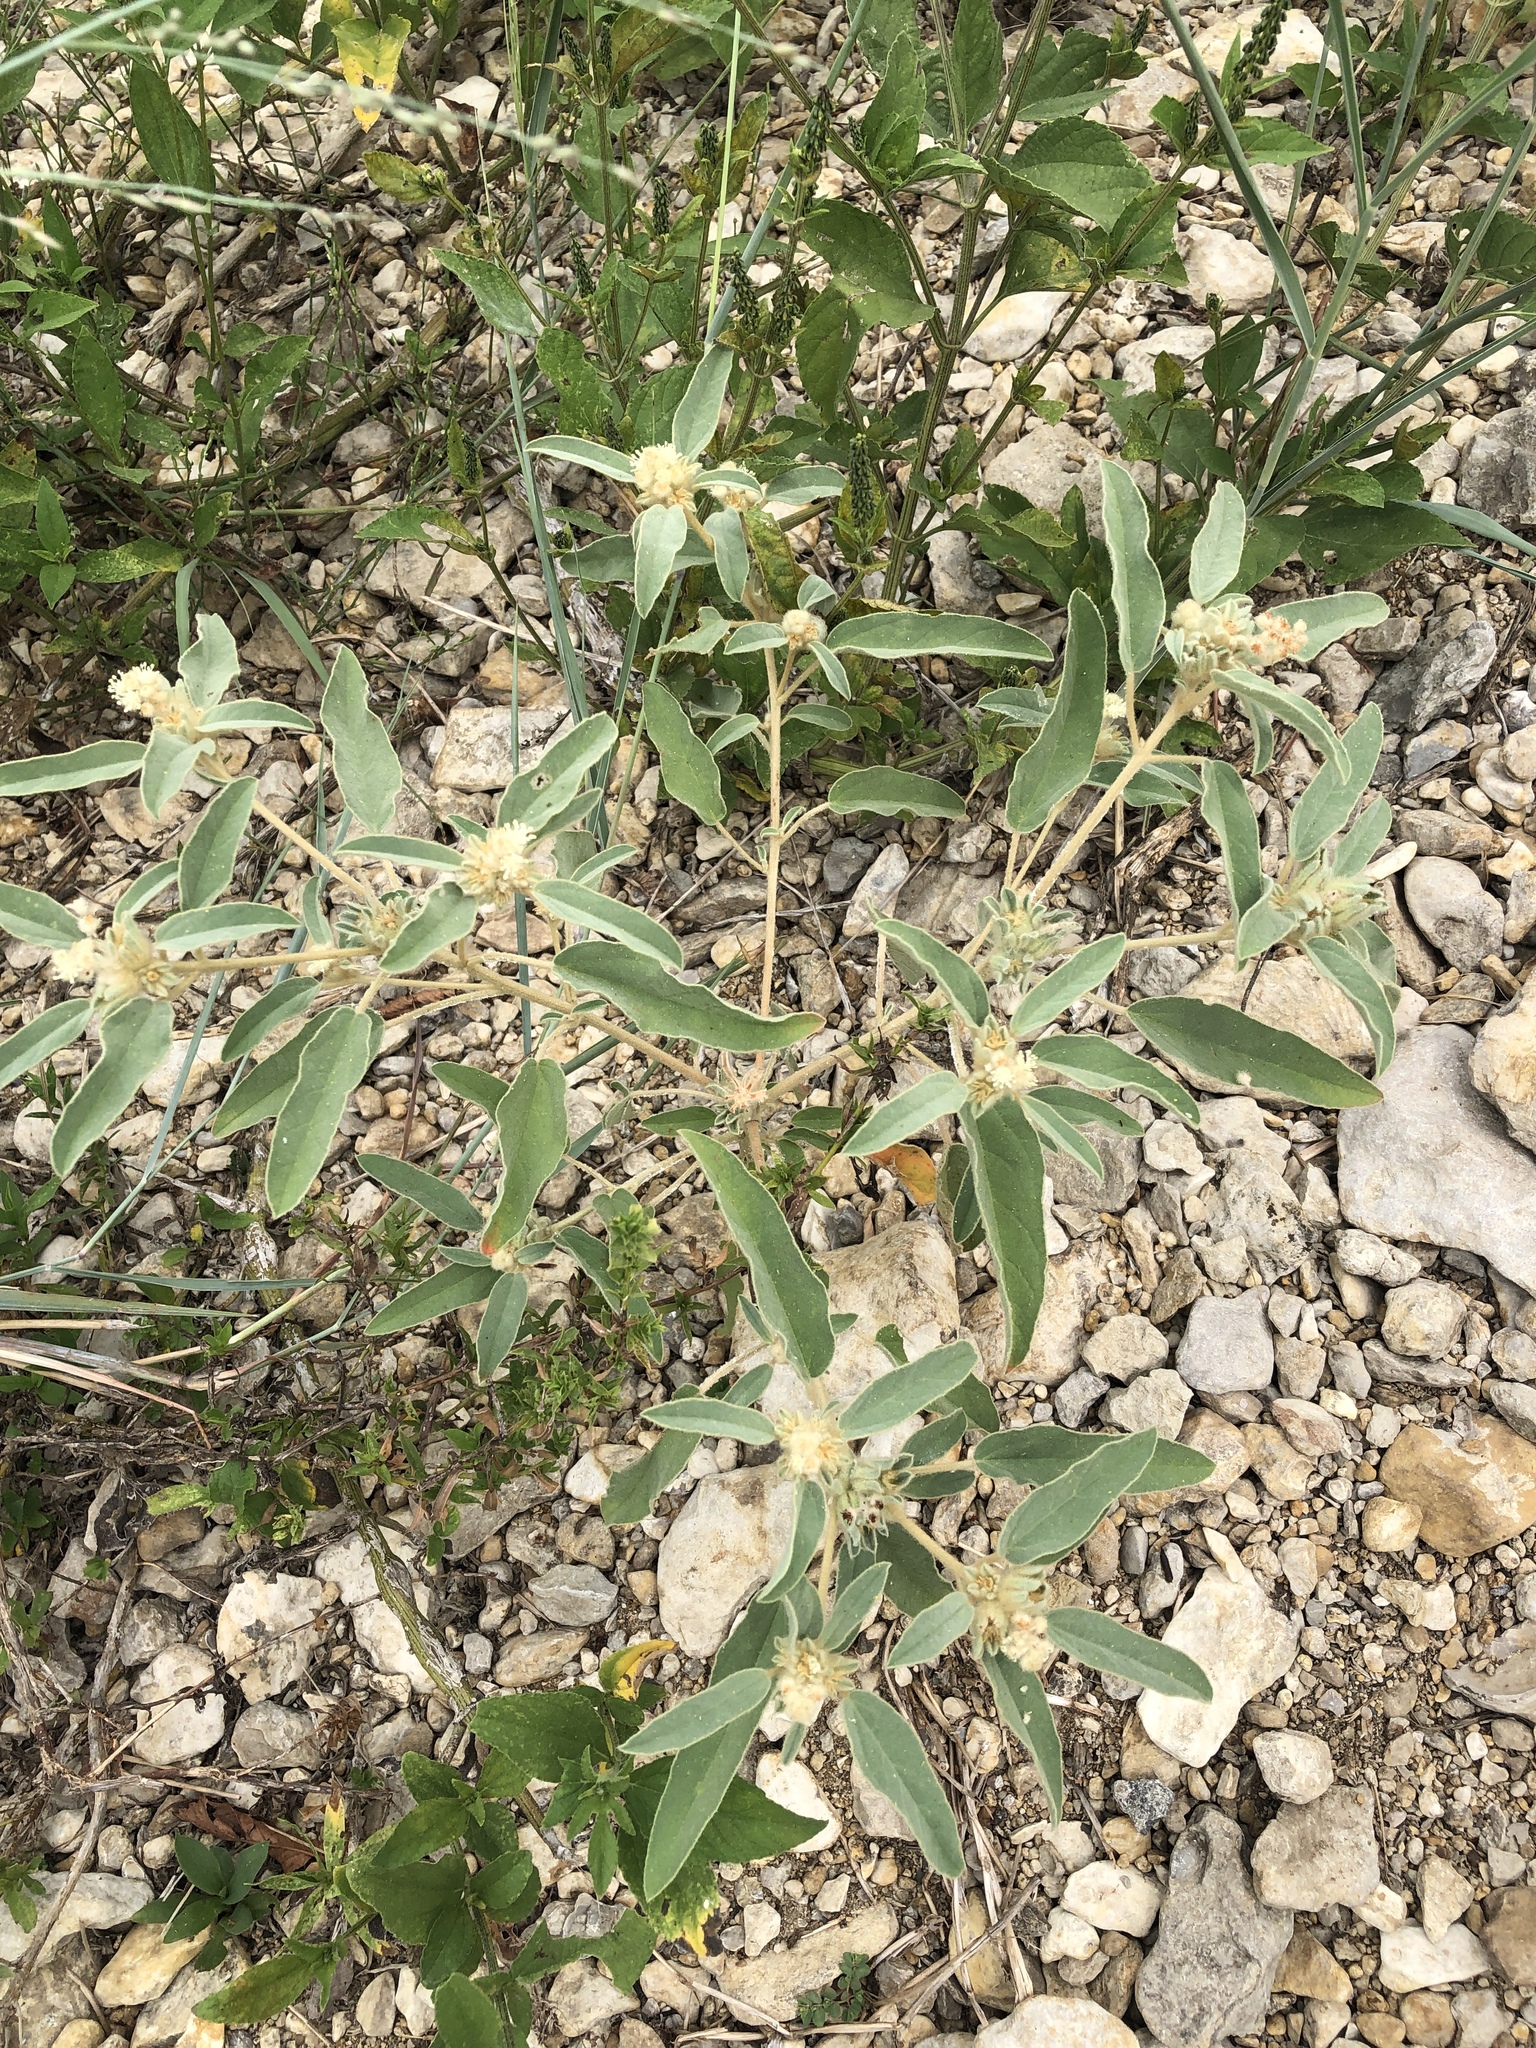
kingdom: Plantae
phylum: Tracheophyta
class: Magnoliopsida
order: Malpighiales
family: Euphorbiaceae
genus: Croton
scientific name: Croton capitatus
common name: Woolly croton
